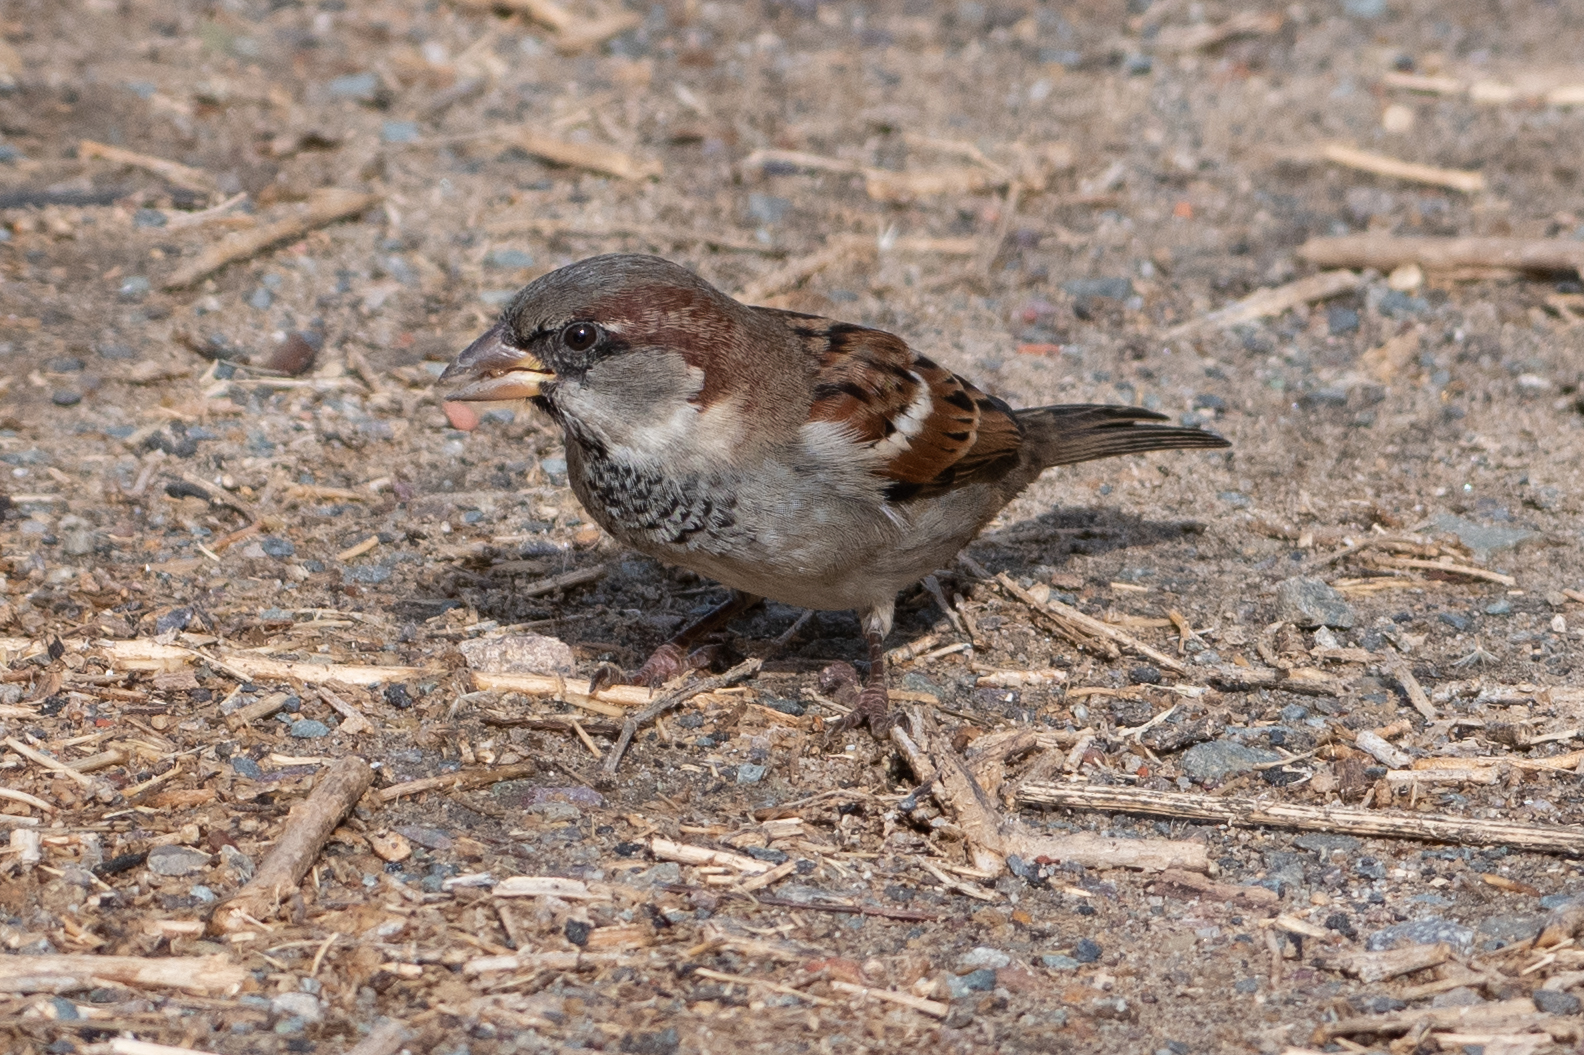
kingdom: Animalia
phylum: Chordata
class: Aves
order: Passeriformes
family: Passeridae
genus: Passer
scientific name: Passer domesticus
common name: House sparrow
